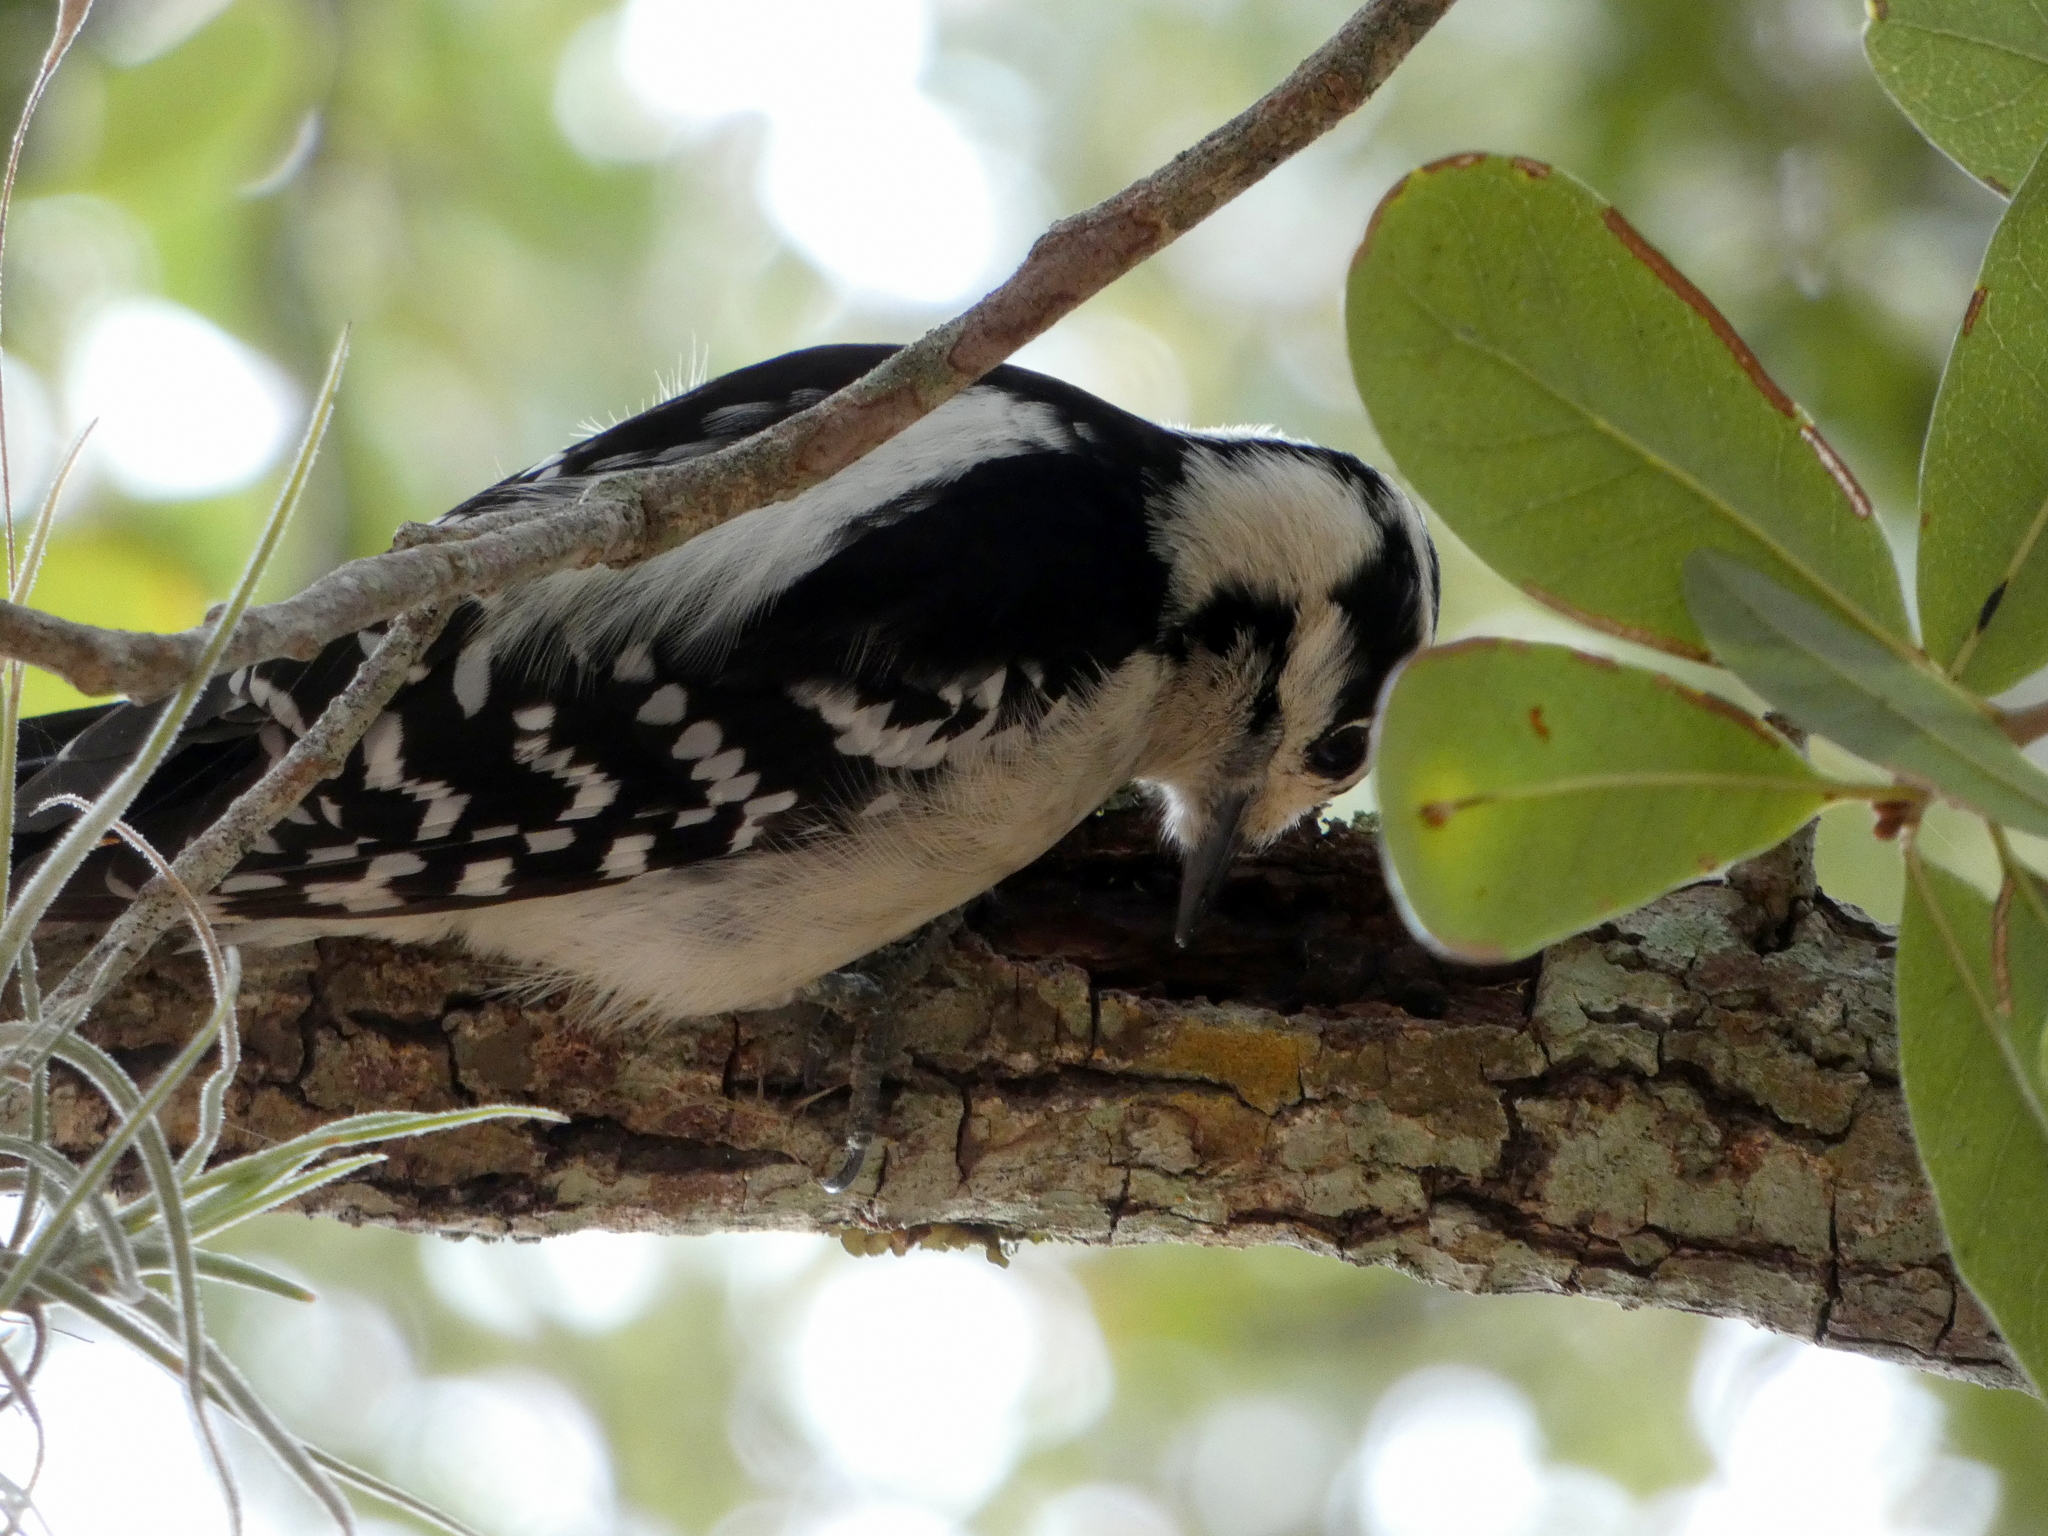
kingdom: Animalia
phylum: Chordata
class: Aves
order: Piciformes
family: Picidae
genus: Dryobates
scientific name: Dryobates pubescens
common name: Downy woodpecker
